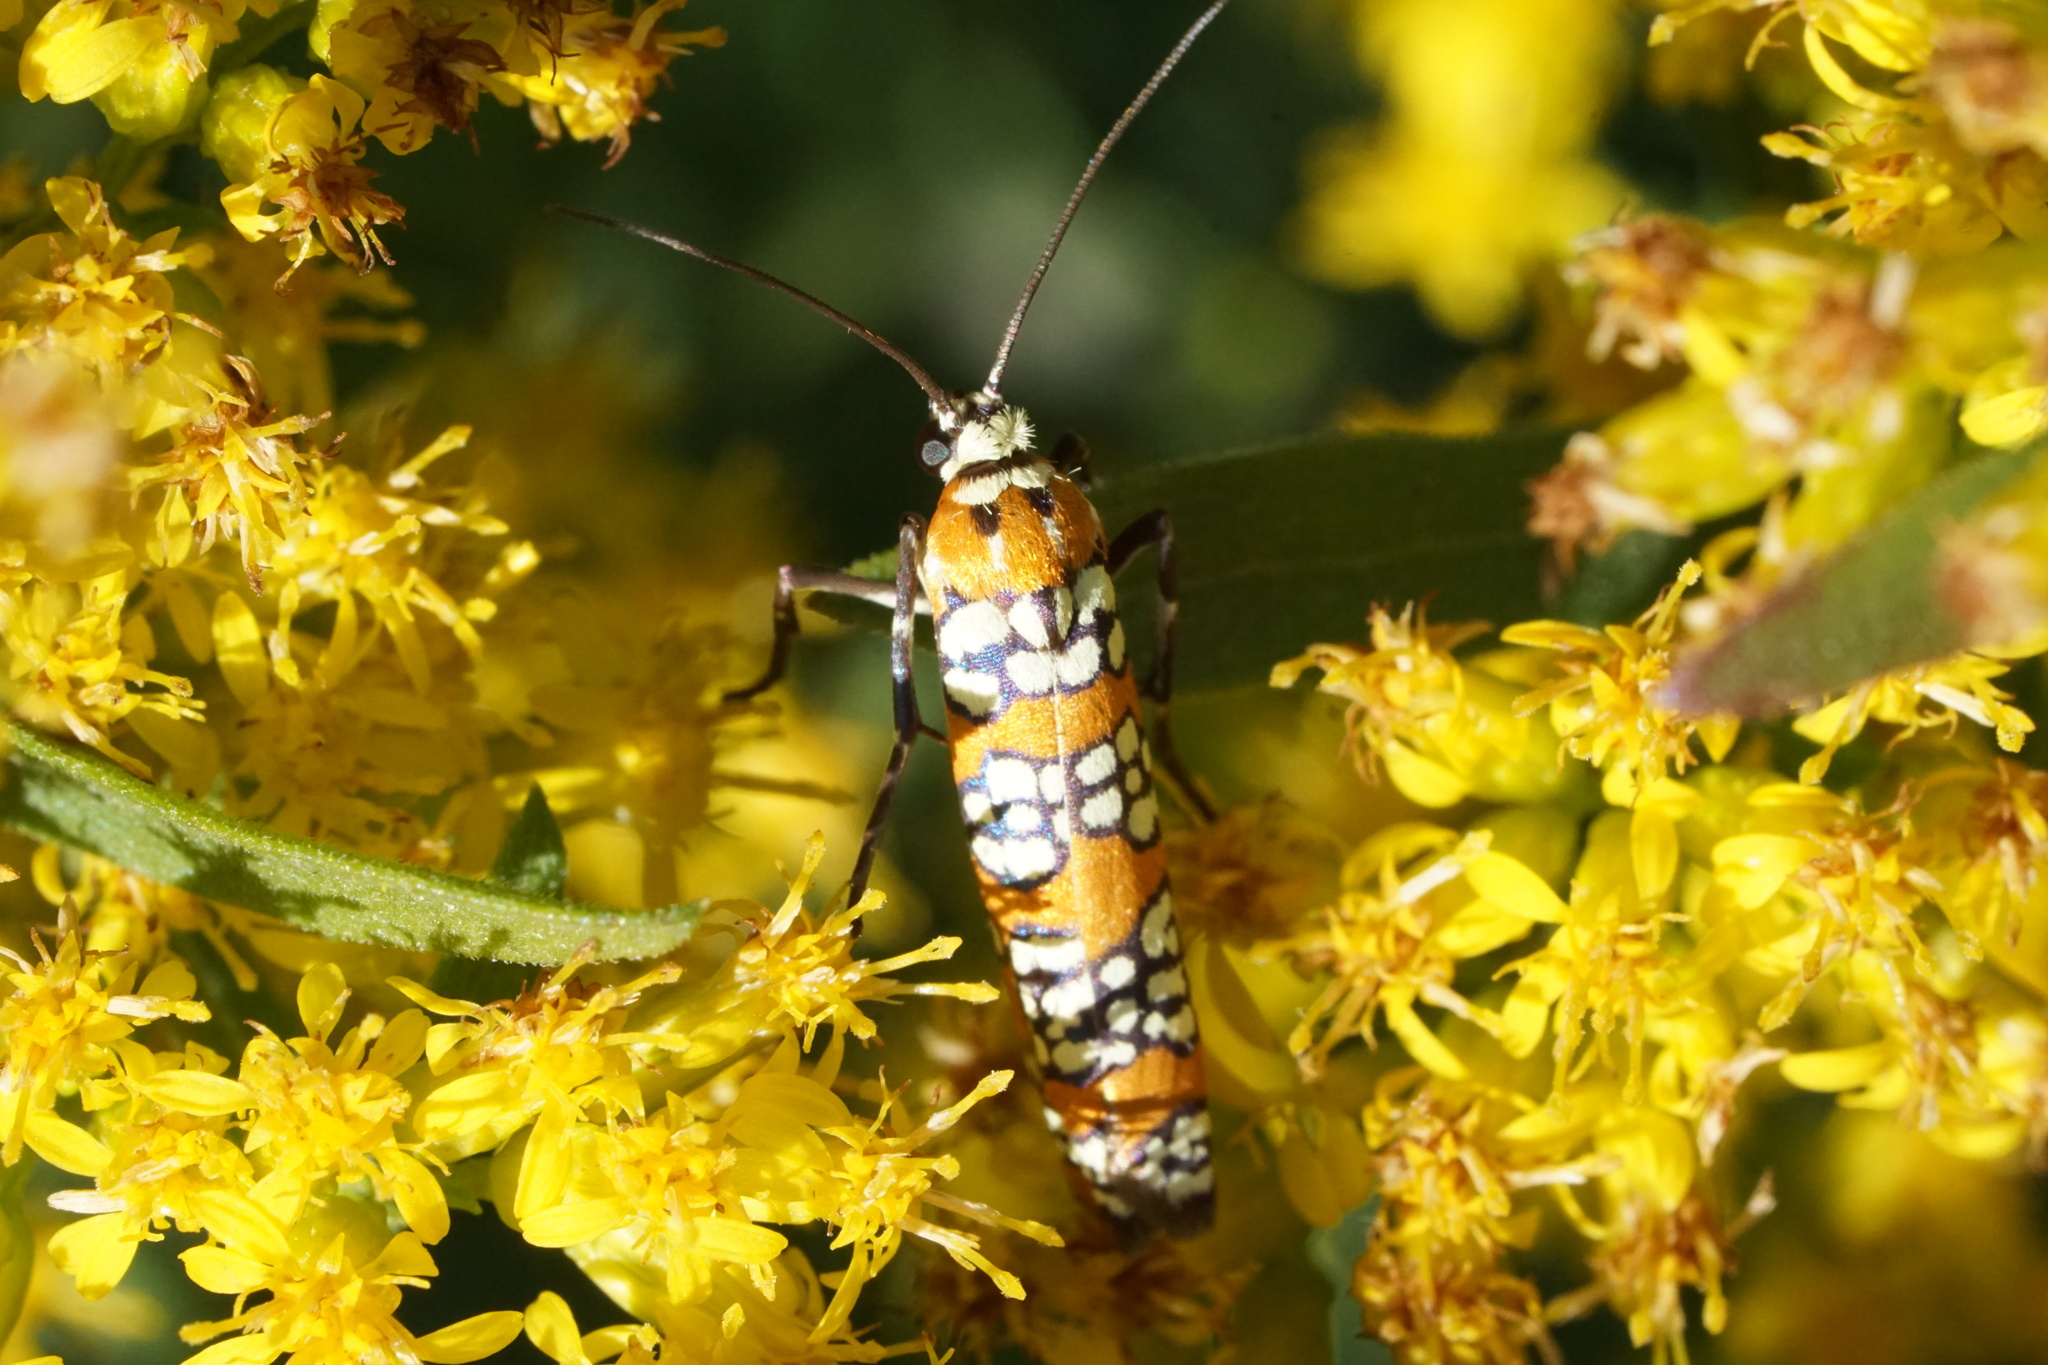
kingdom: Animalia
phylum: Arthropoda
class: Insecta
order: Lepidoptera
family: Attevidae
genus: Atteva
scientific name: Atteva punctella
